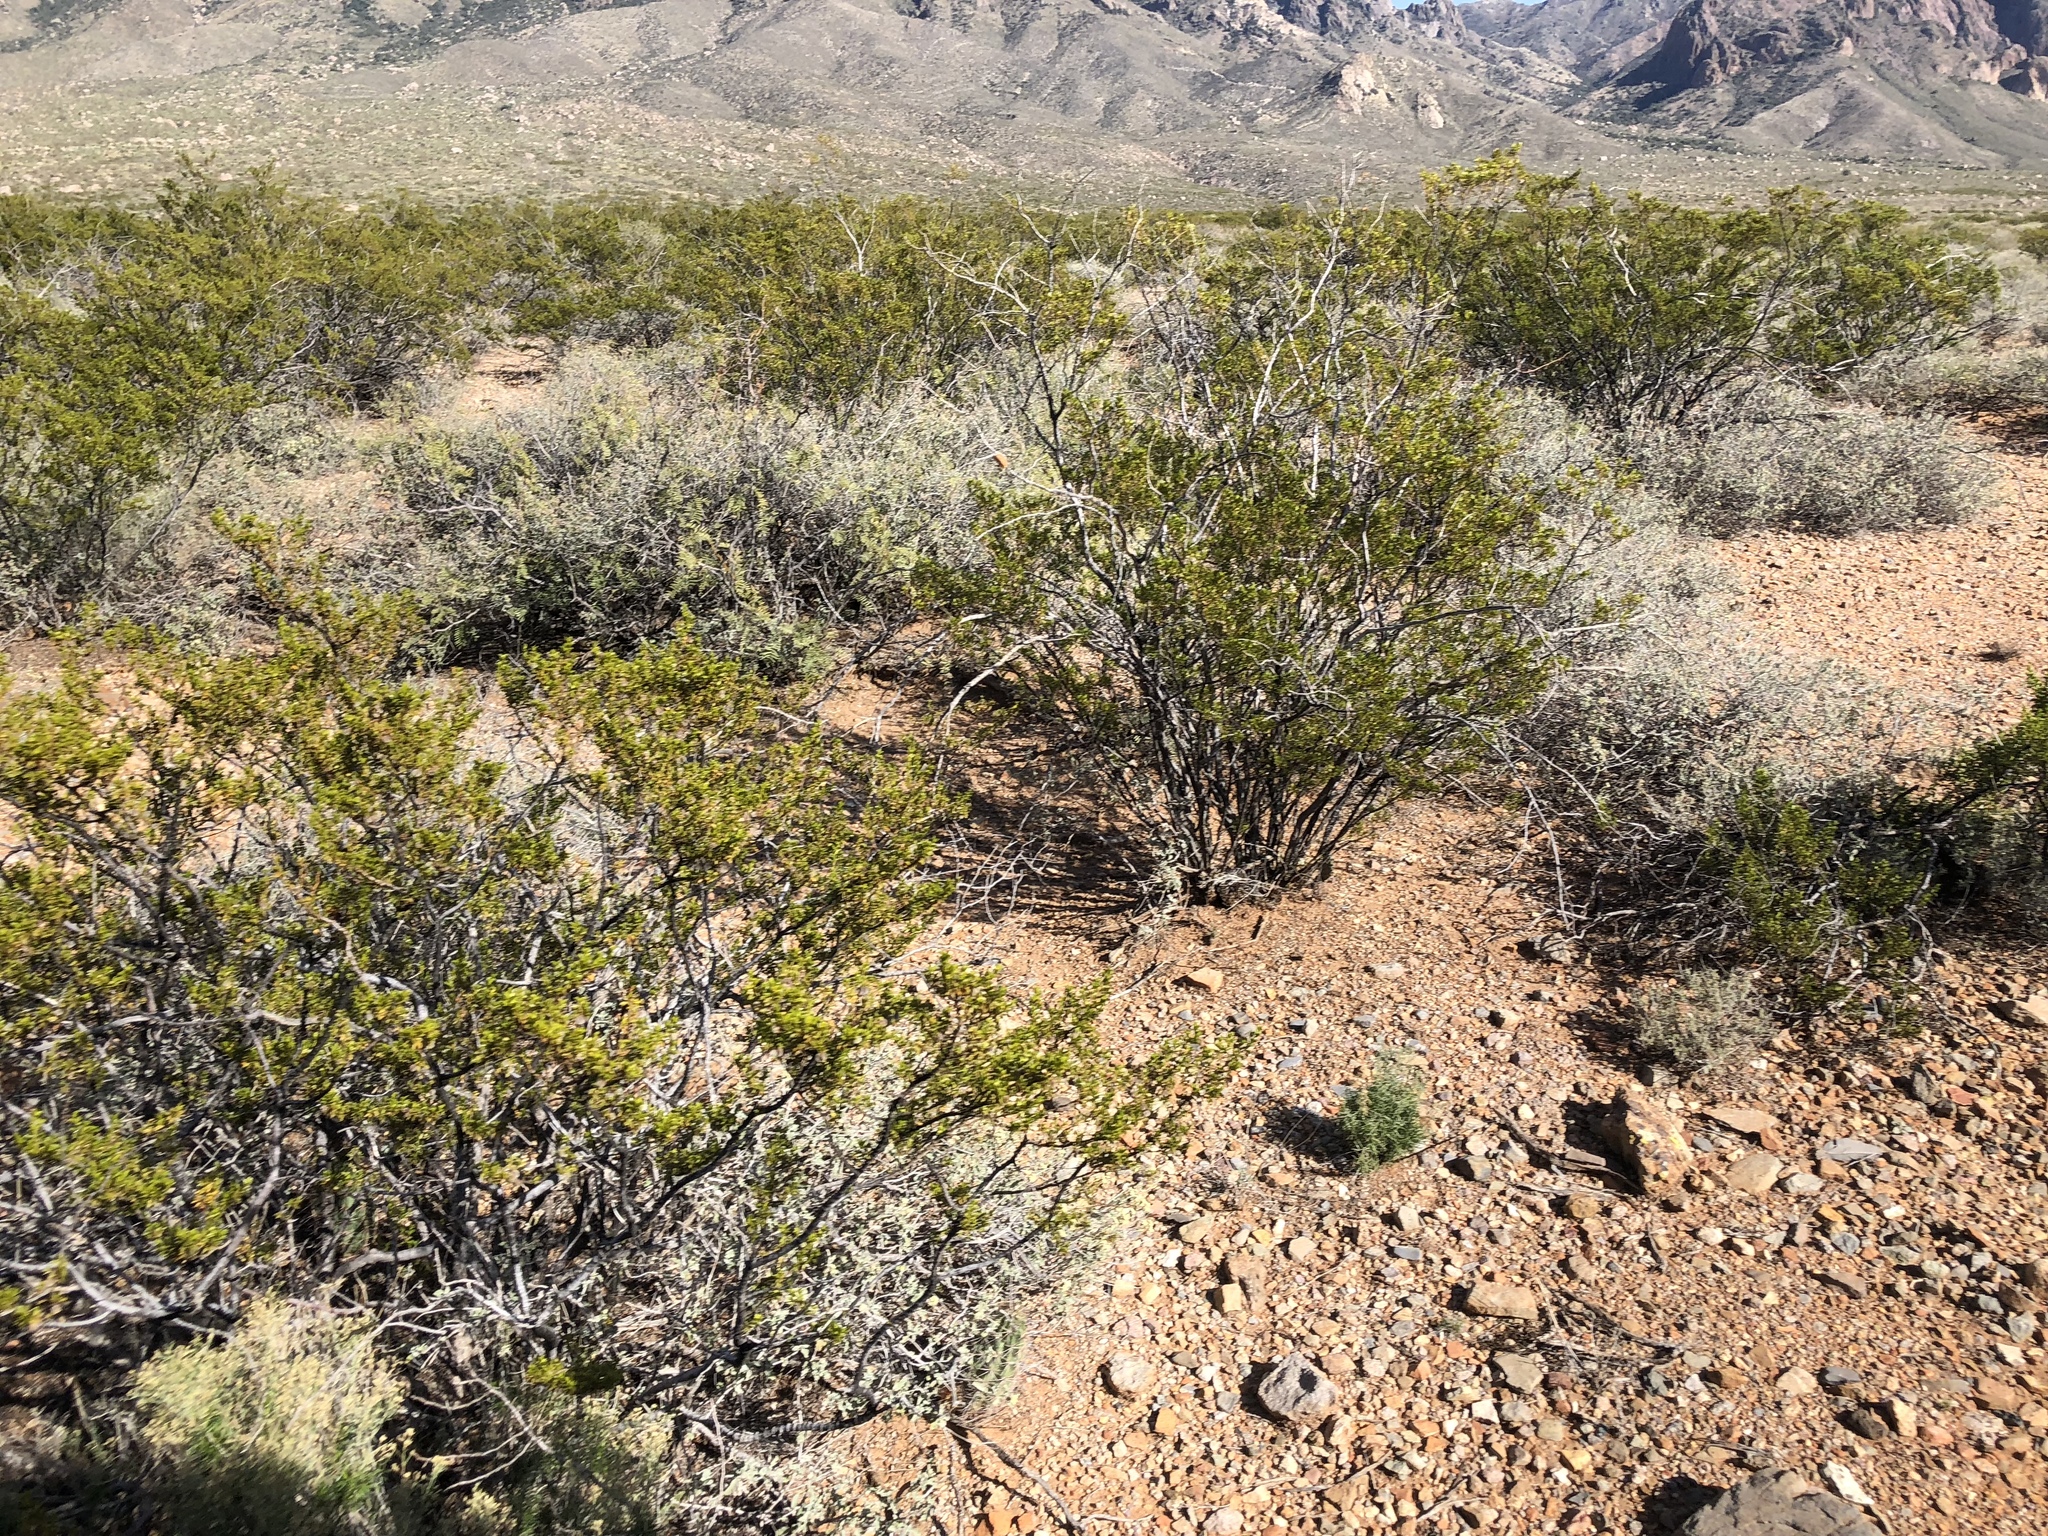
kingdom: Plantae
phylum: Tracheophyta
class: Magnoliopsida
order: Zygophyllales
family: Zygophyllaceae
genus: Larrea
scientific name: Larrea tridentata
